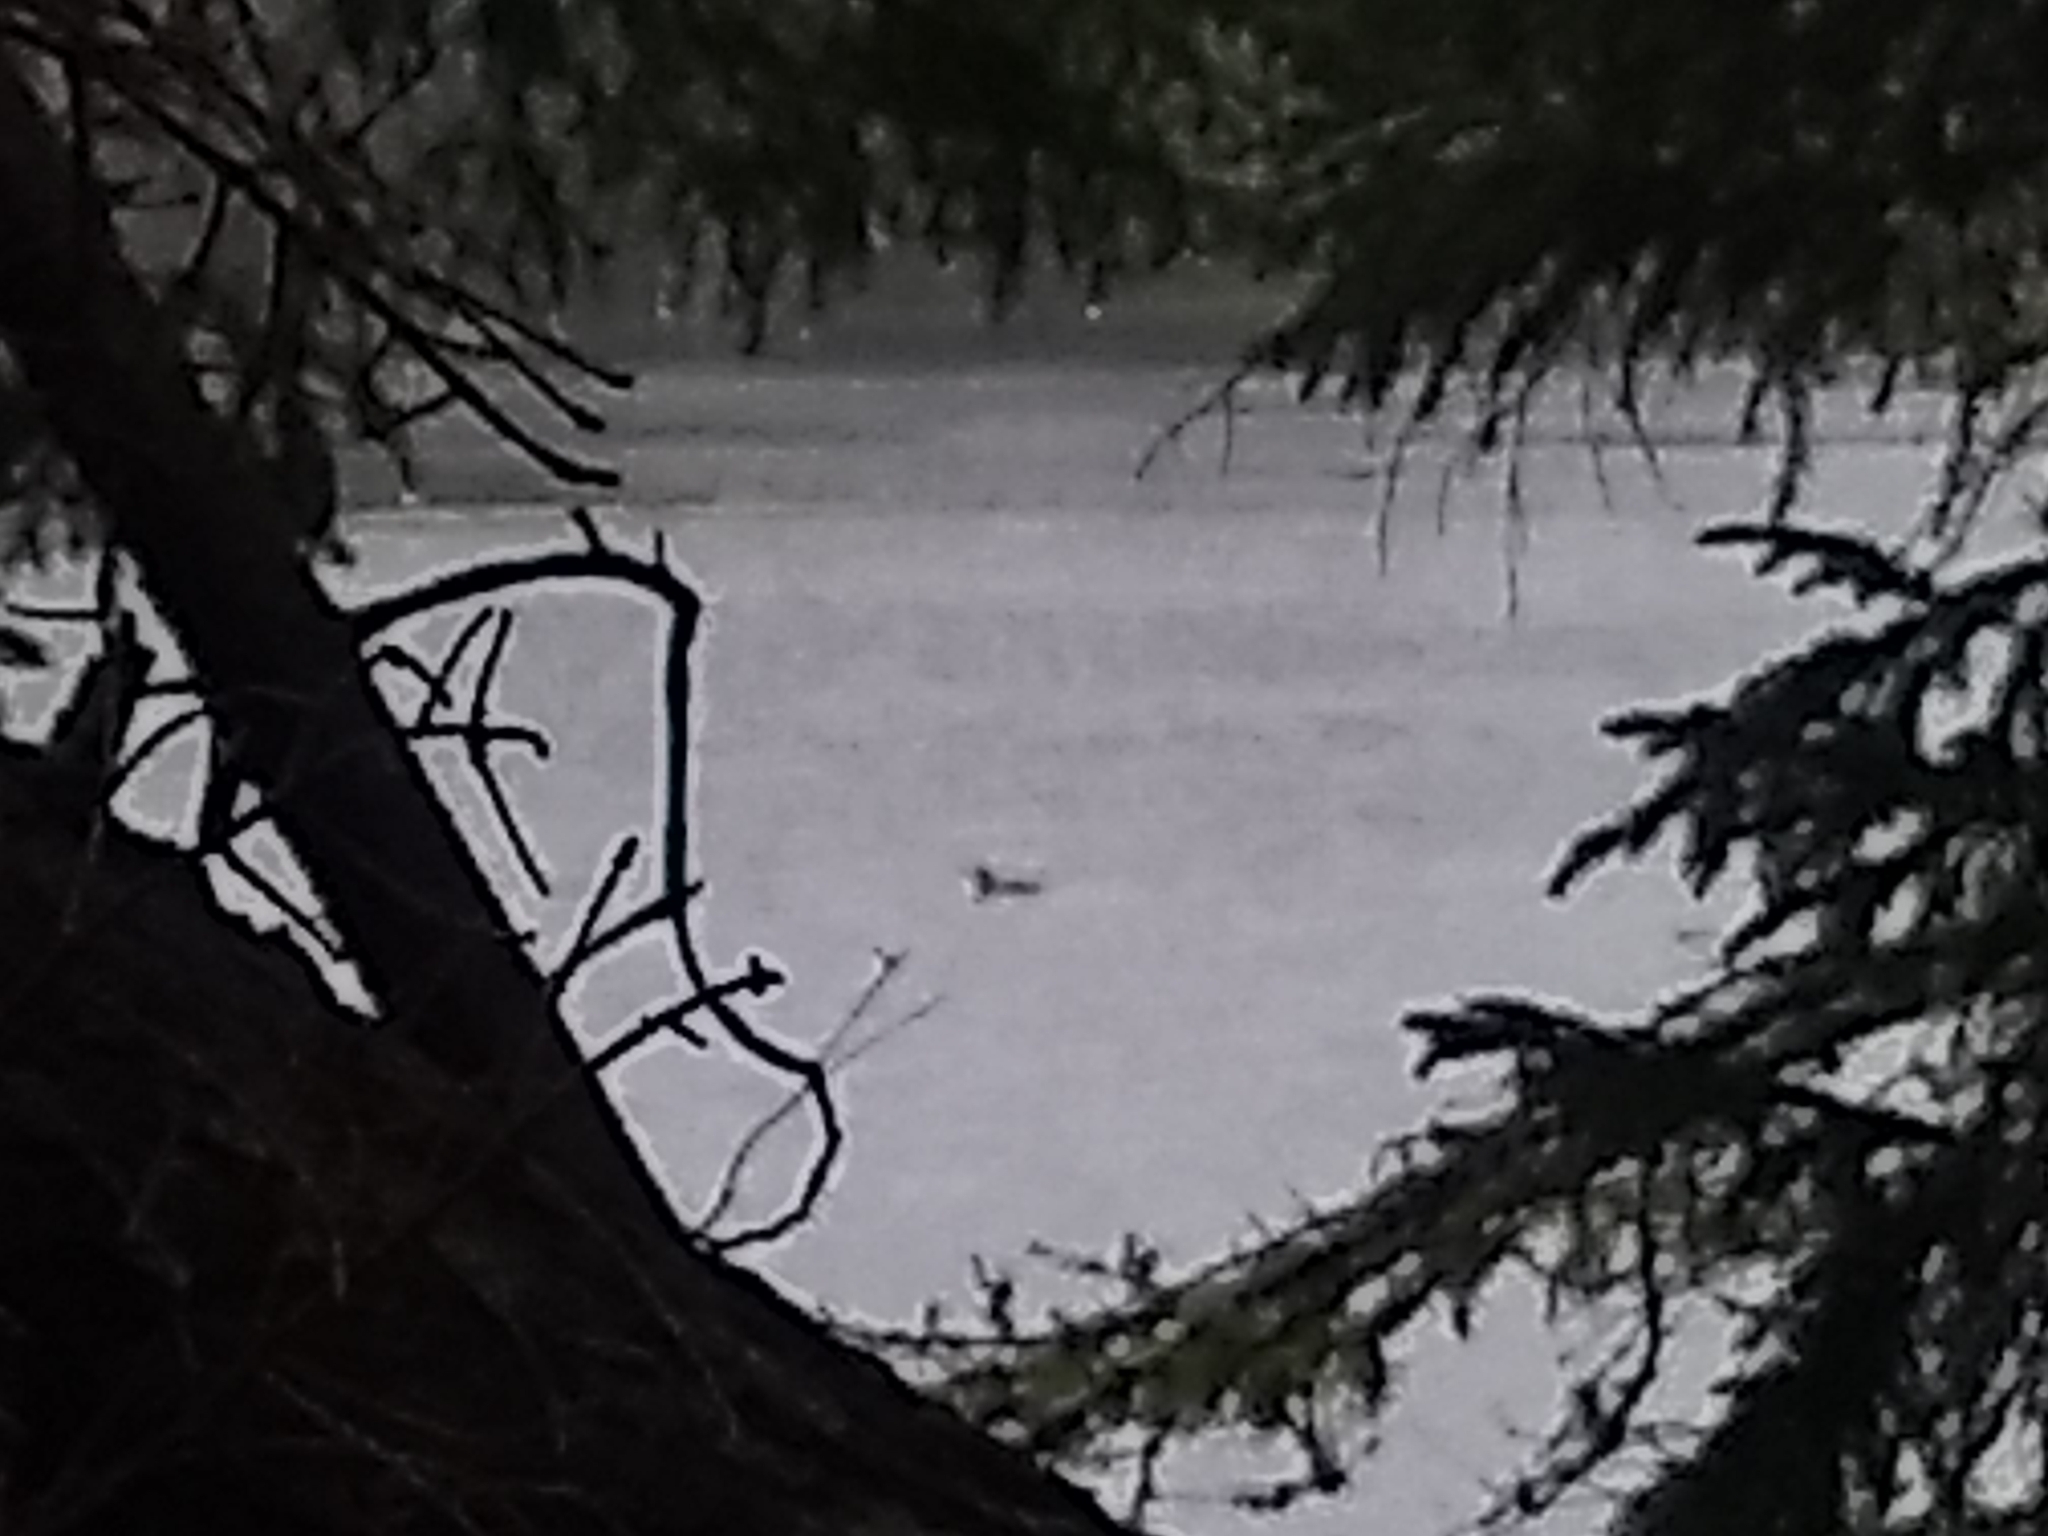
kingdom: Animalia
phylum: Chordata
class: Aves
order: Gaviiformes
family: Gaviidae
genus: Gavia
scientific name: Gavia immer
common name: Common loon
